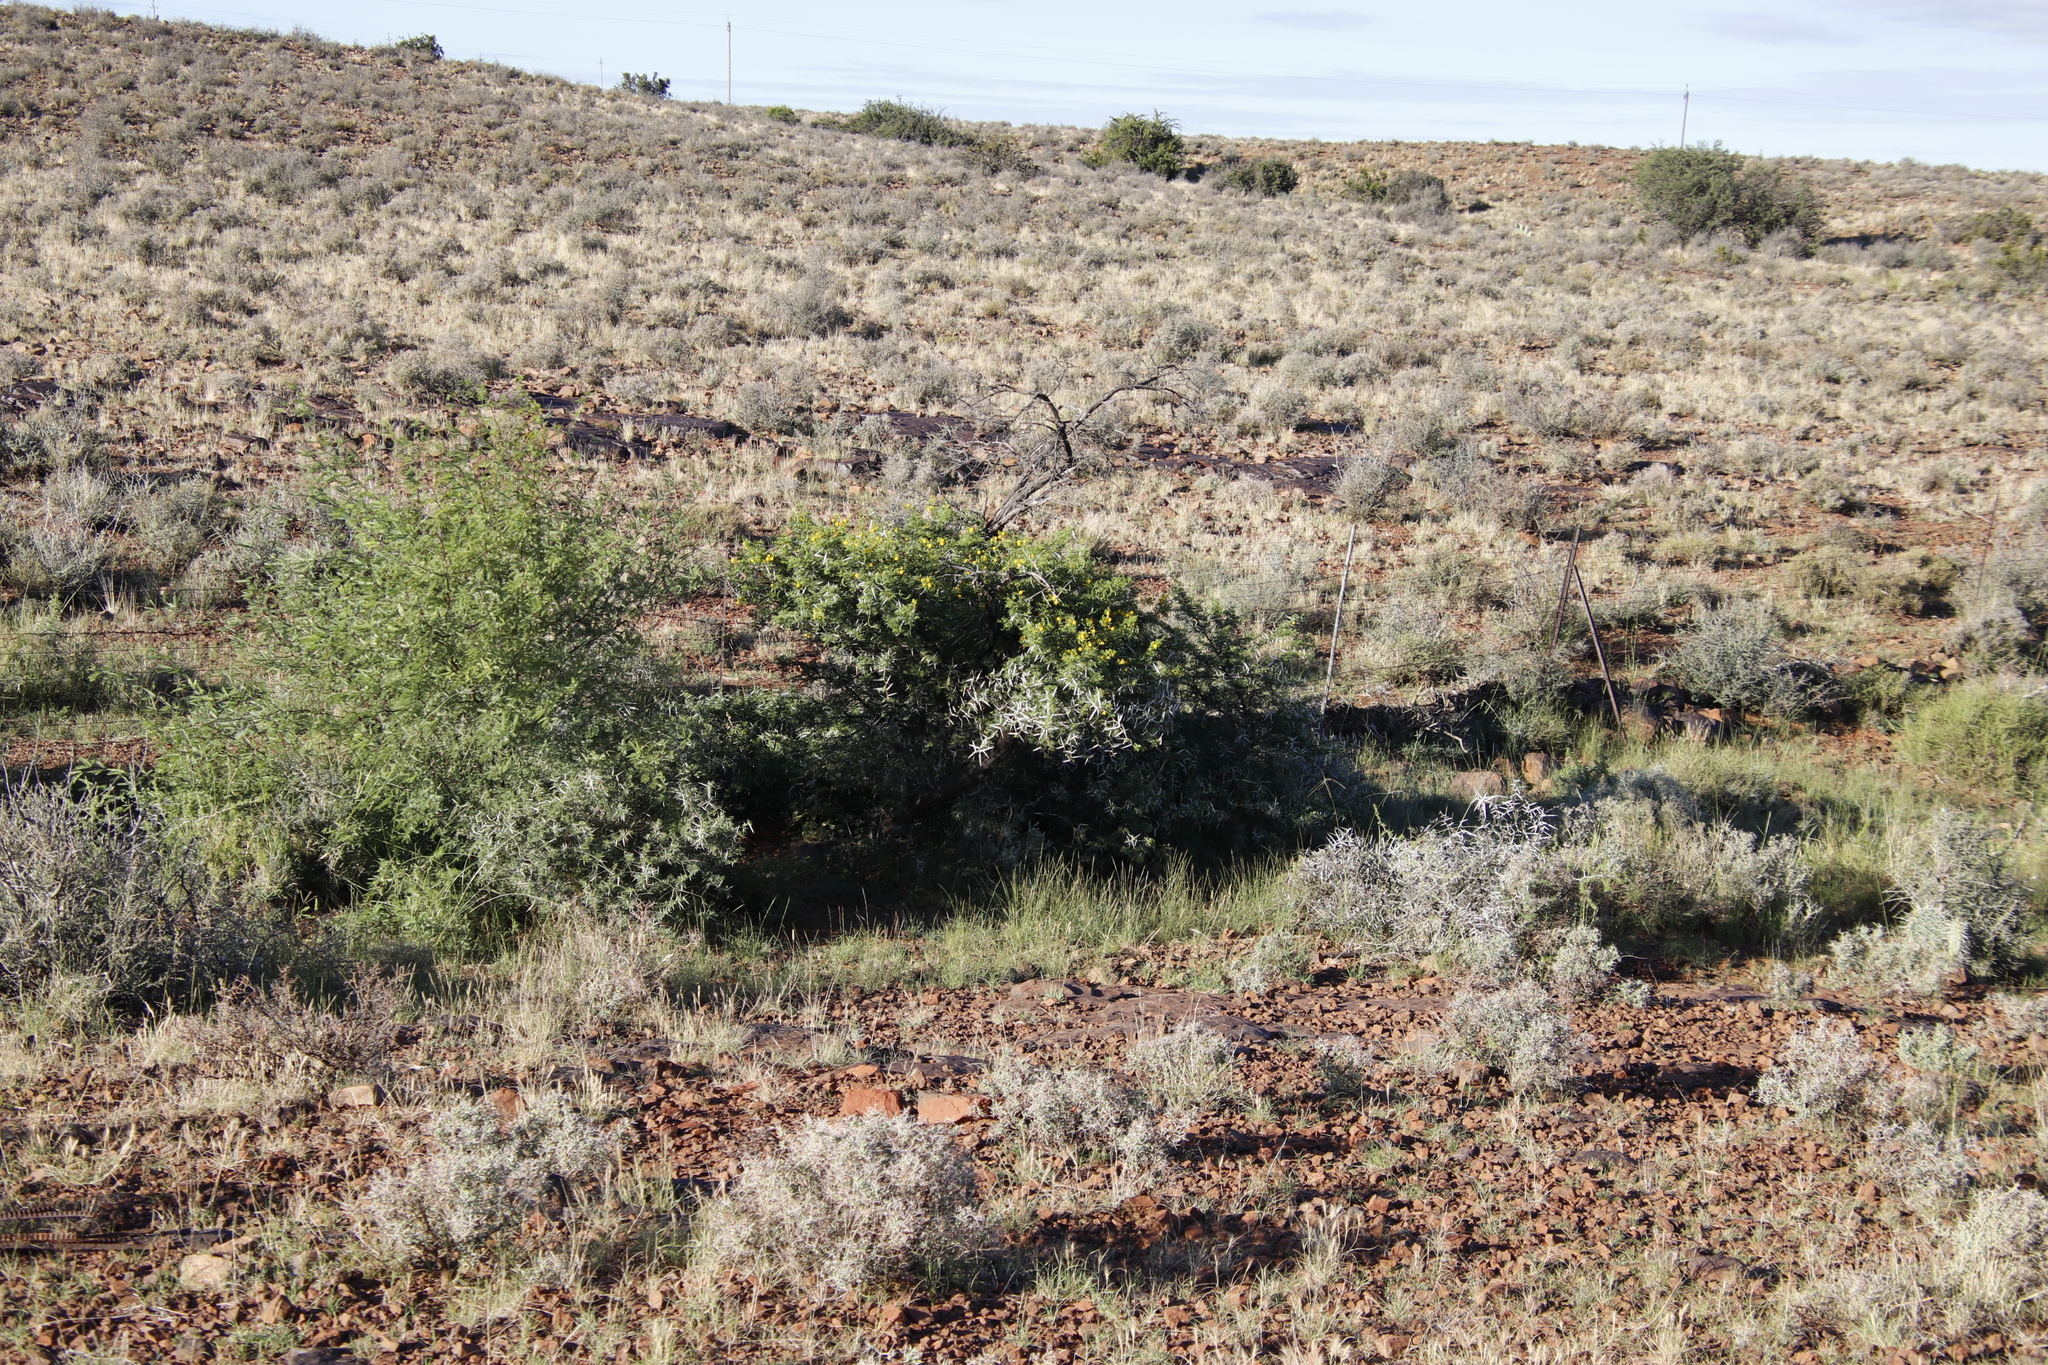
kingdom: Plantae
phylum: Tracheophyta
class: Magnoliopsida
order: Fabales
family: Fabaceae
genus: Vachellia
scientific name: Vachellia karroo
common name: Sweet thorn
